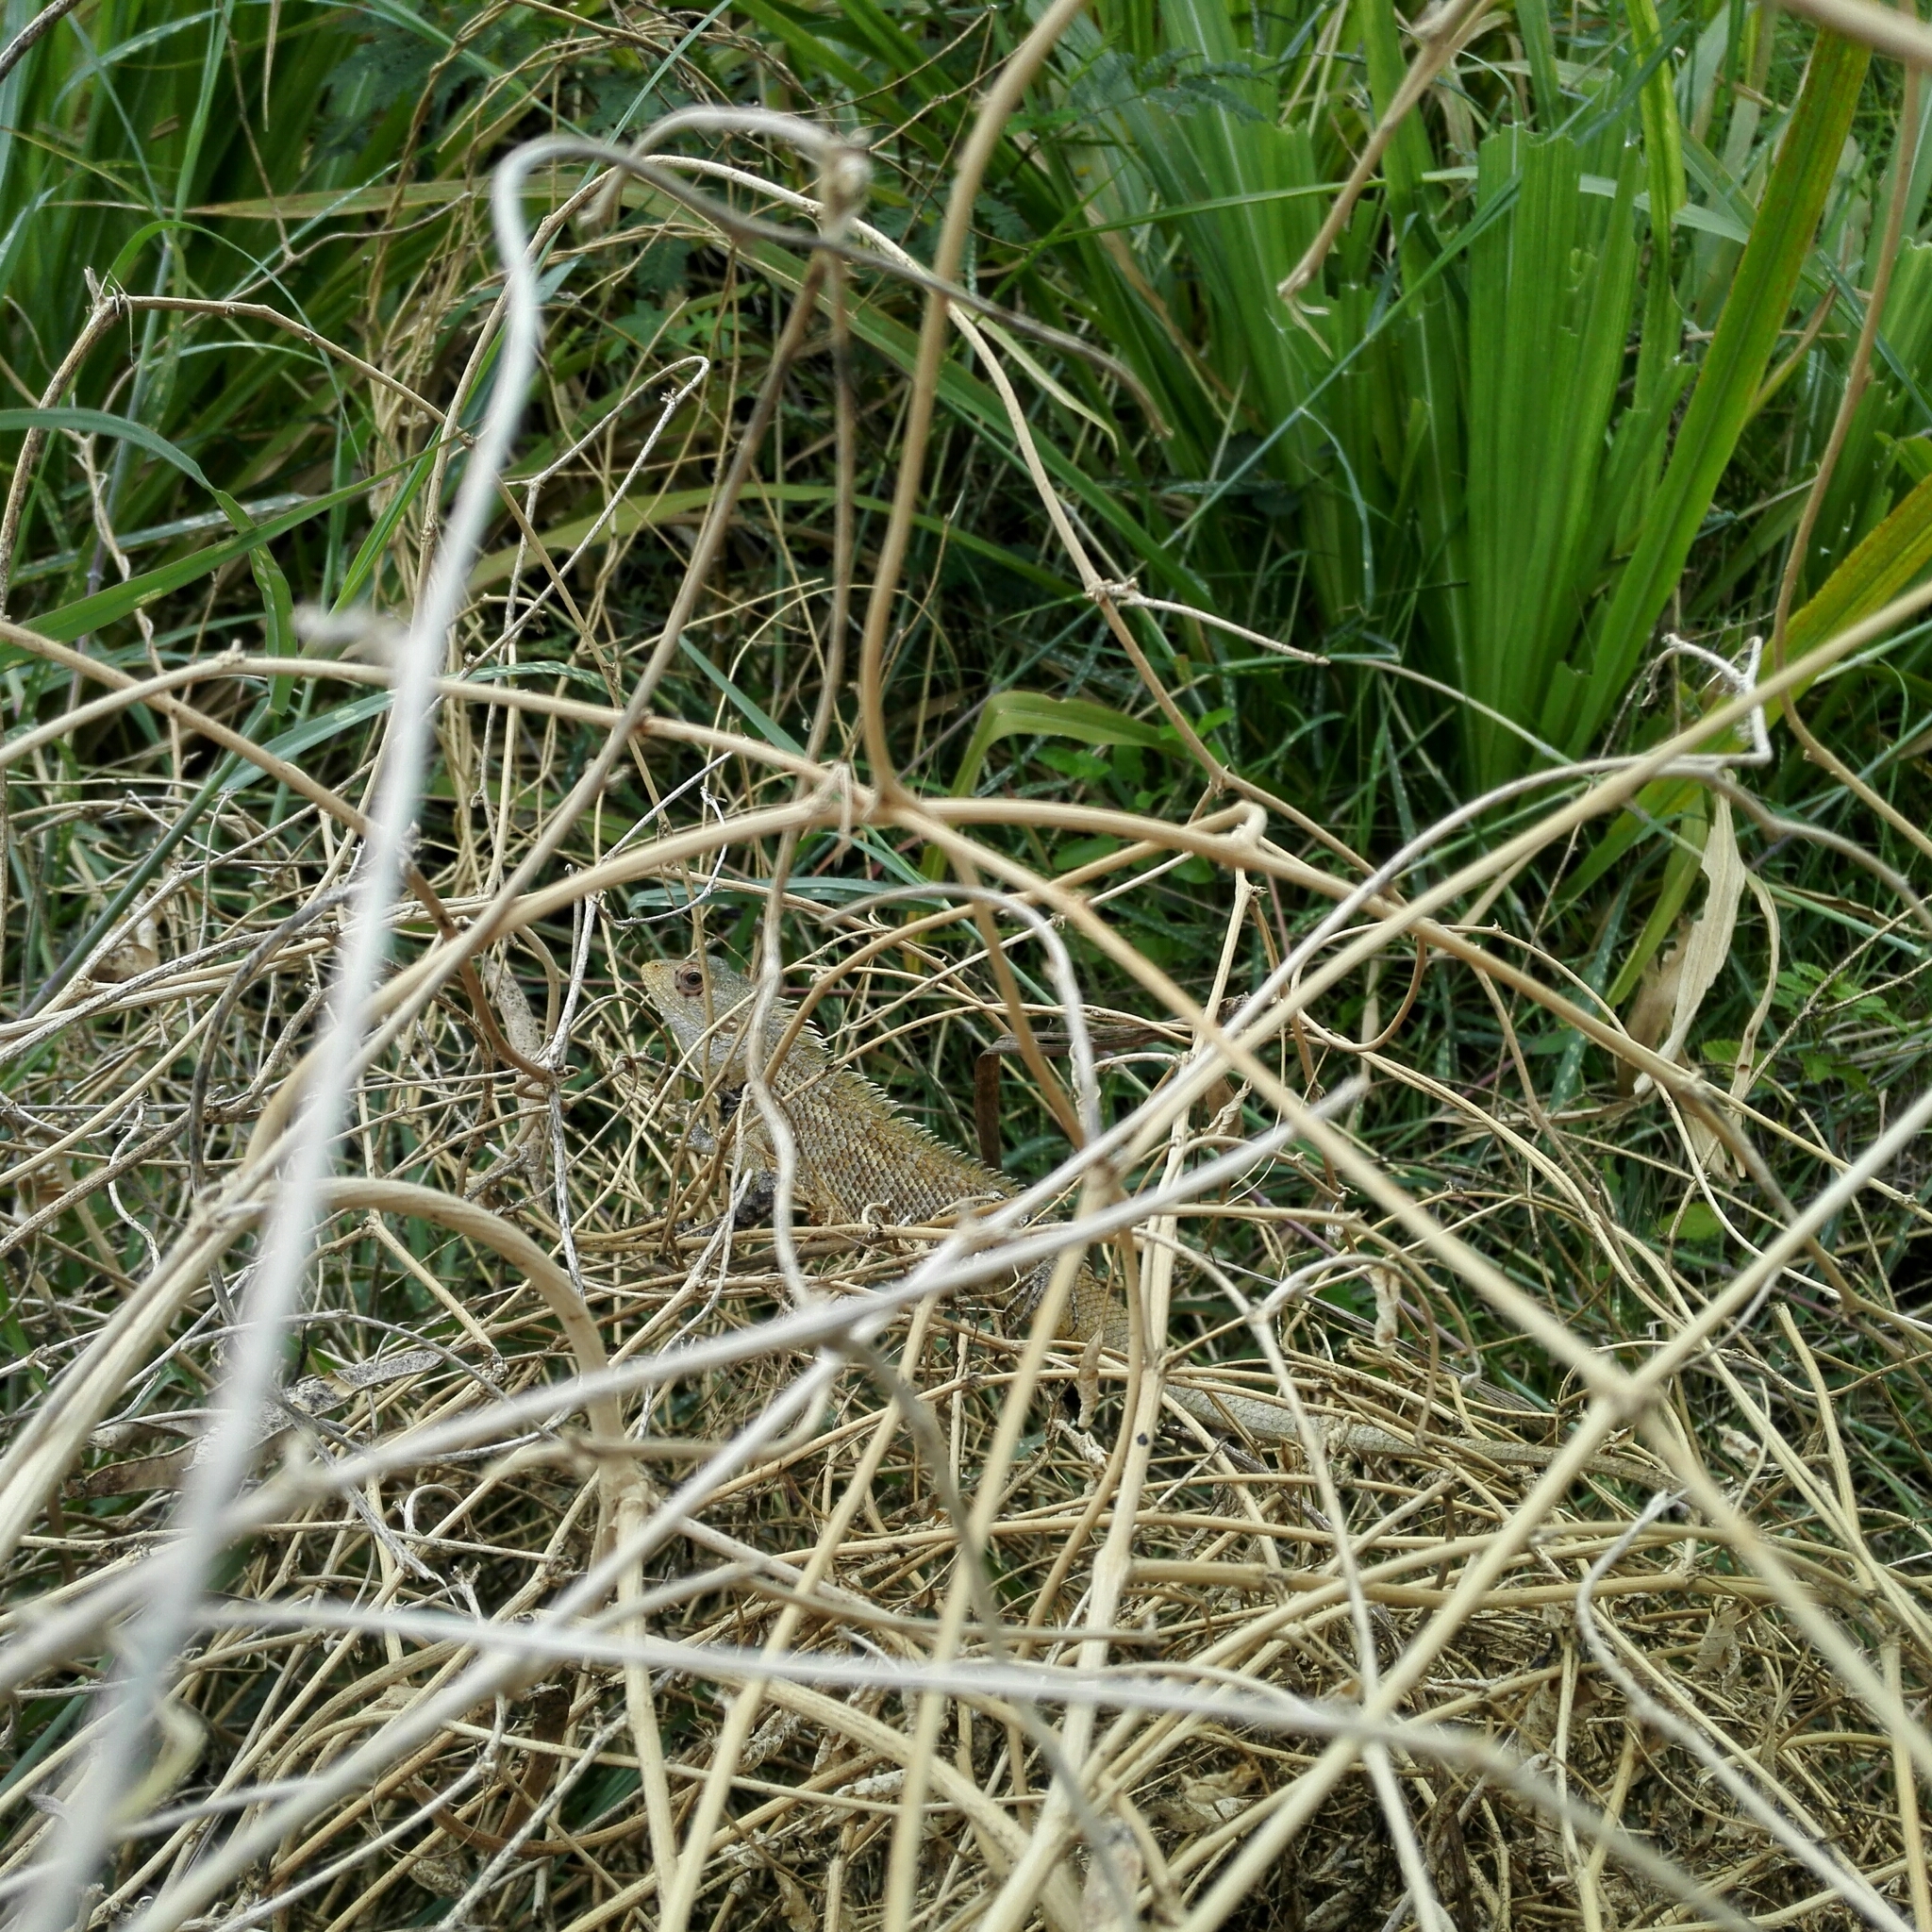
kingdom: Animalia
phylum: Chordata
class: Squamata
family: Agamidae
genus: Calotes
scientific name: Calotes versicolor
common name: Oriental garden lizard
